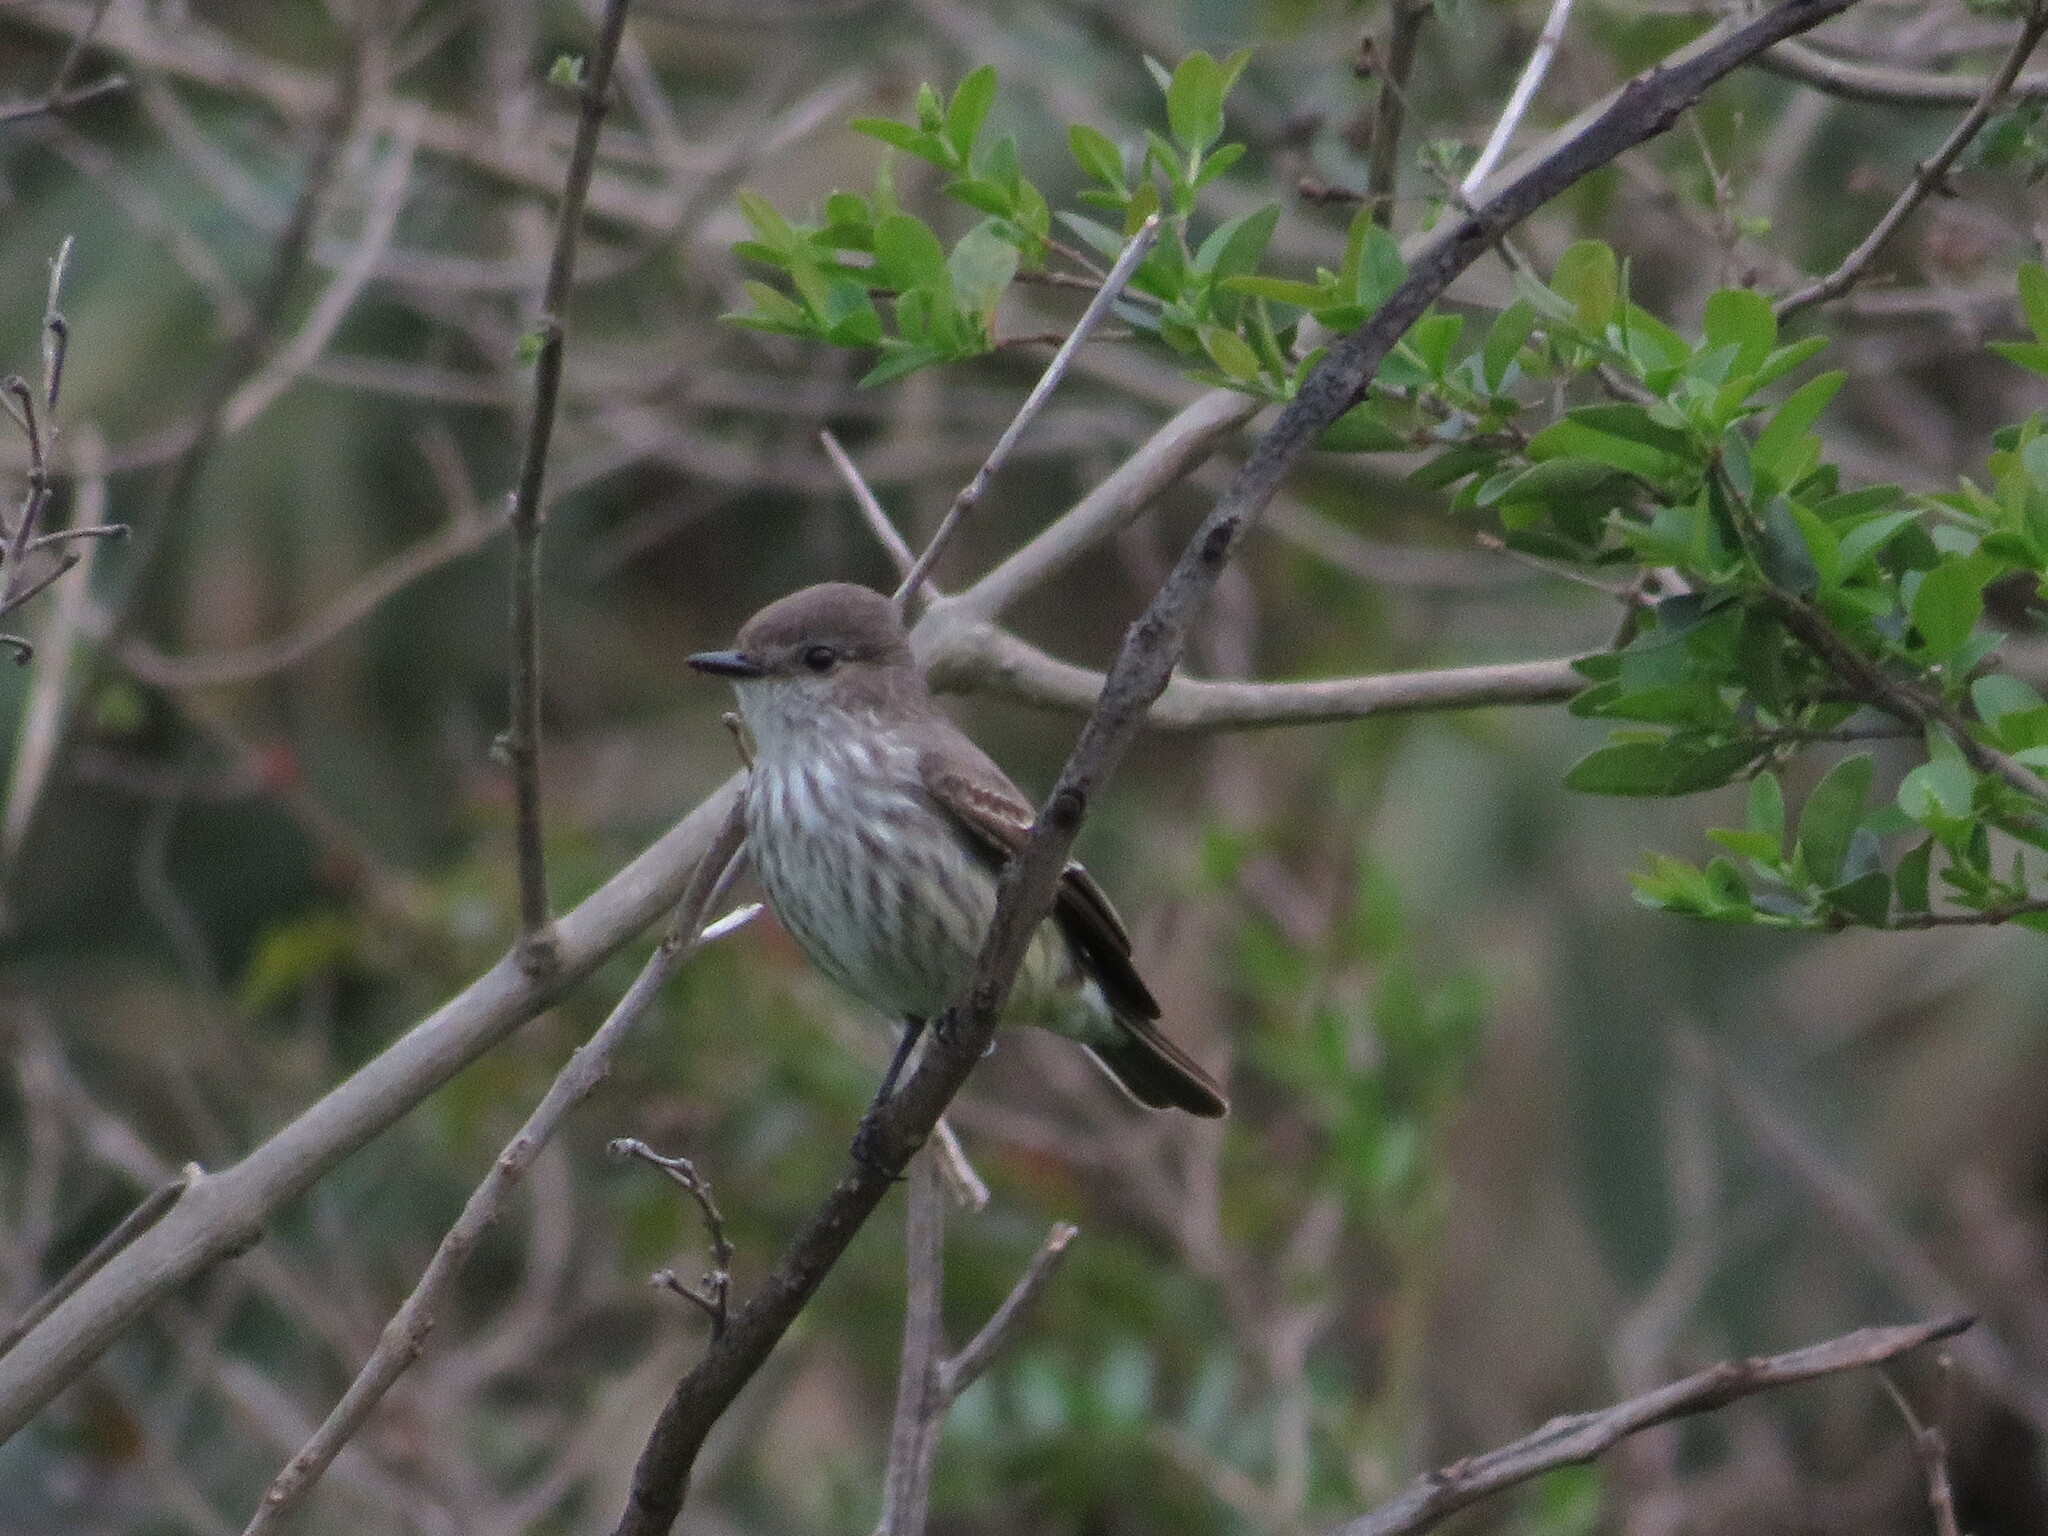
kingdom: Animalia
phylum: Chordata
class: Aves
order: Passeriformes
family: Tyrannidae
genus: Pyrocephalus
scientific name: Pyrocephalus rubinus
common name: Vermilion flycatcher
